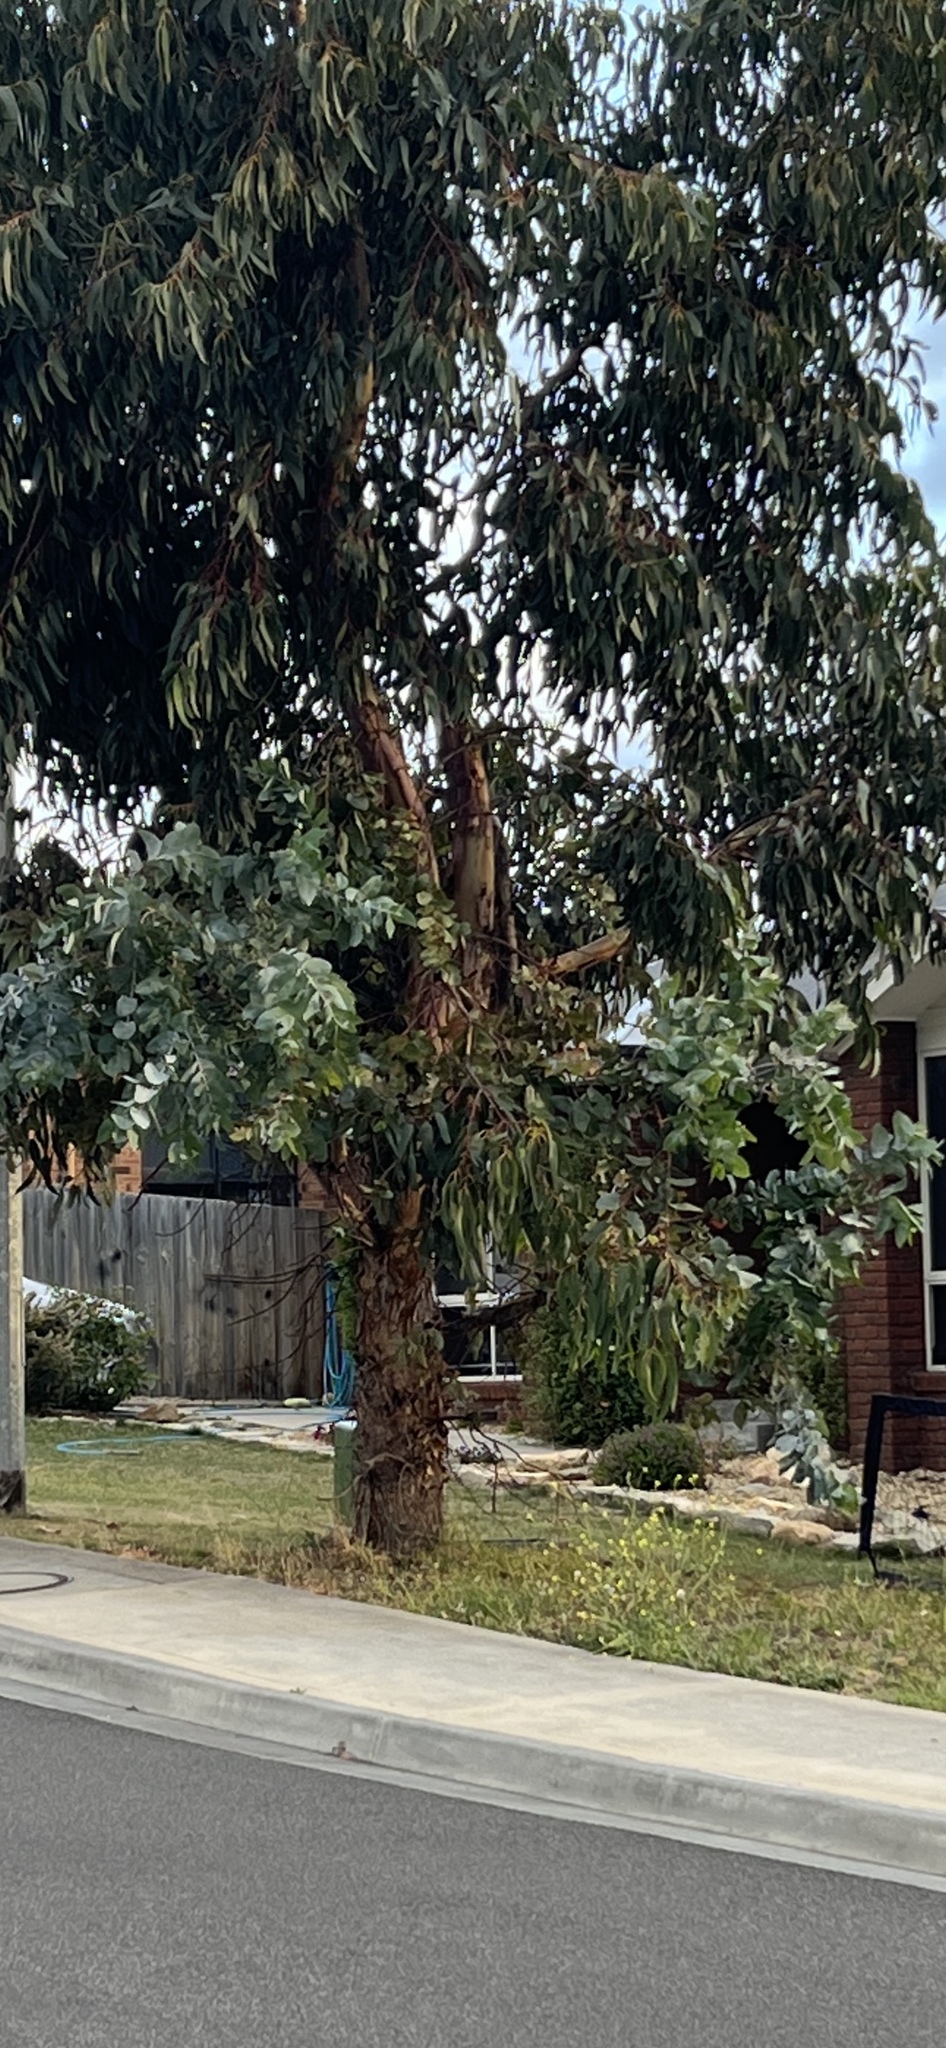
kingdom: Plantae
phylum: Tracheophyta
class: Magnoliopsida
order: Myrtales
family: Myrtaceae
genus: Eucalyptus
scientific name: Eucalyptus globulus
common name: Southern blue-gum
